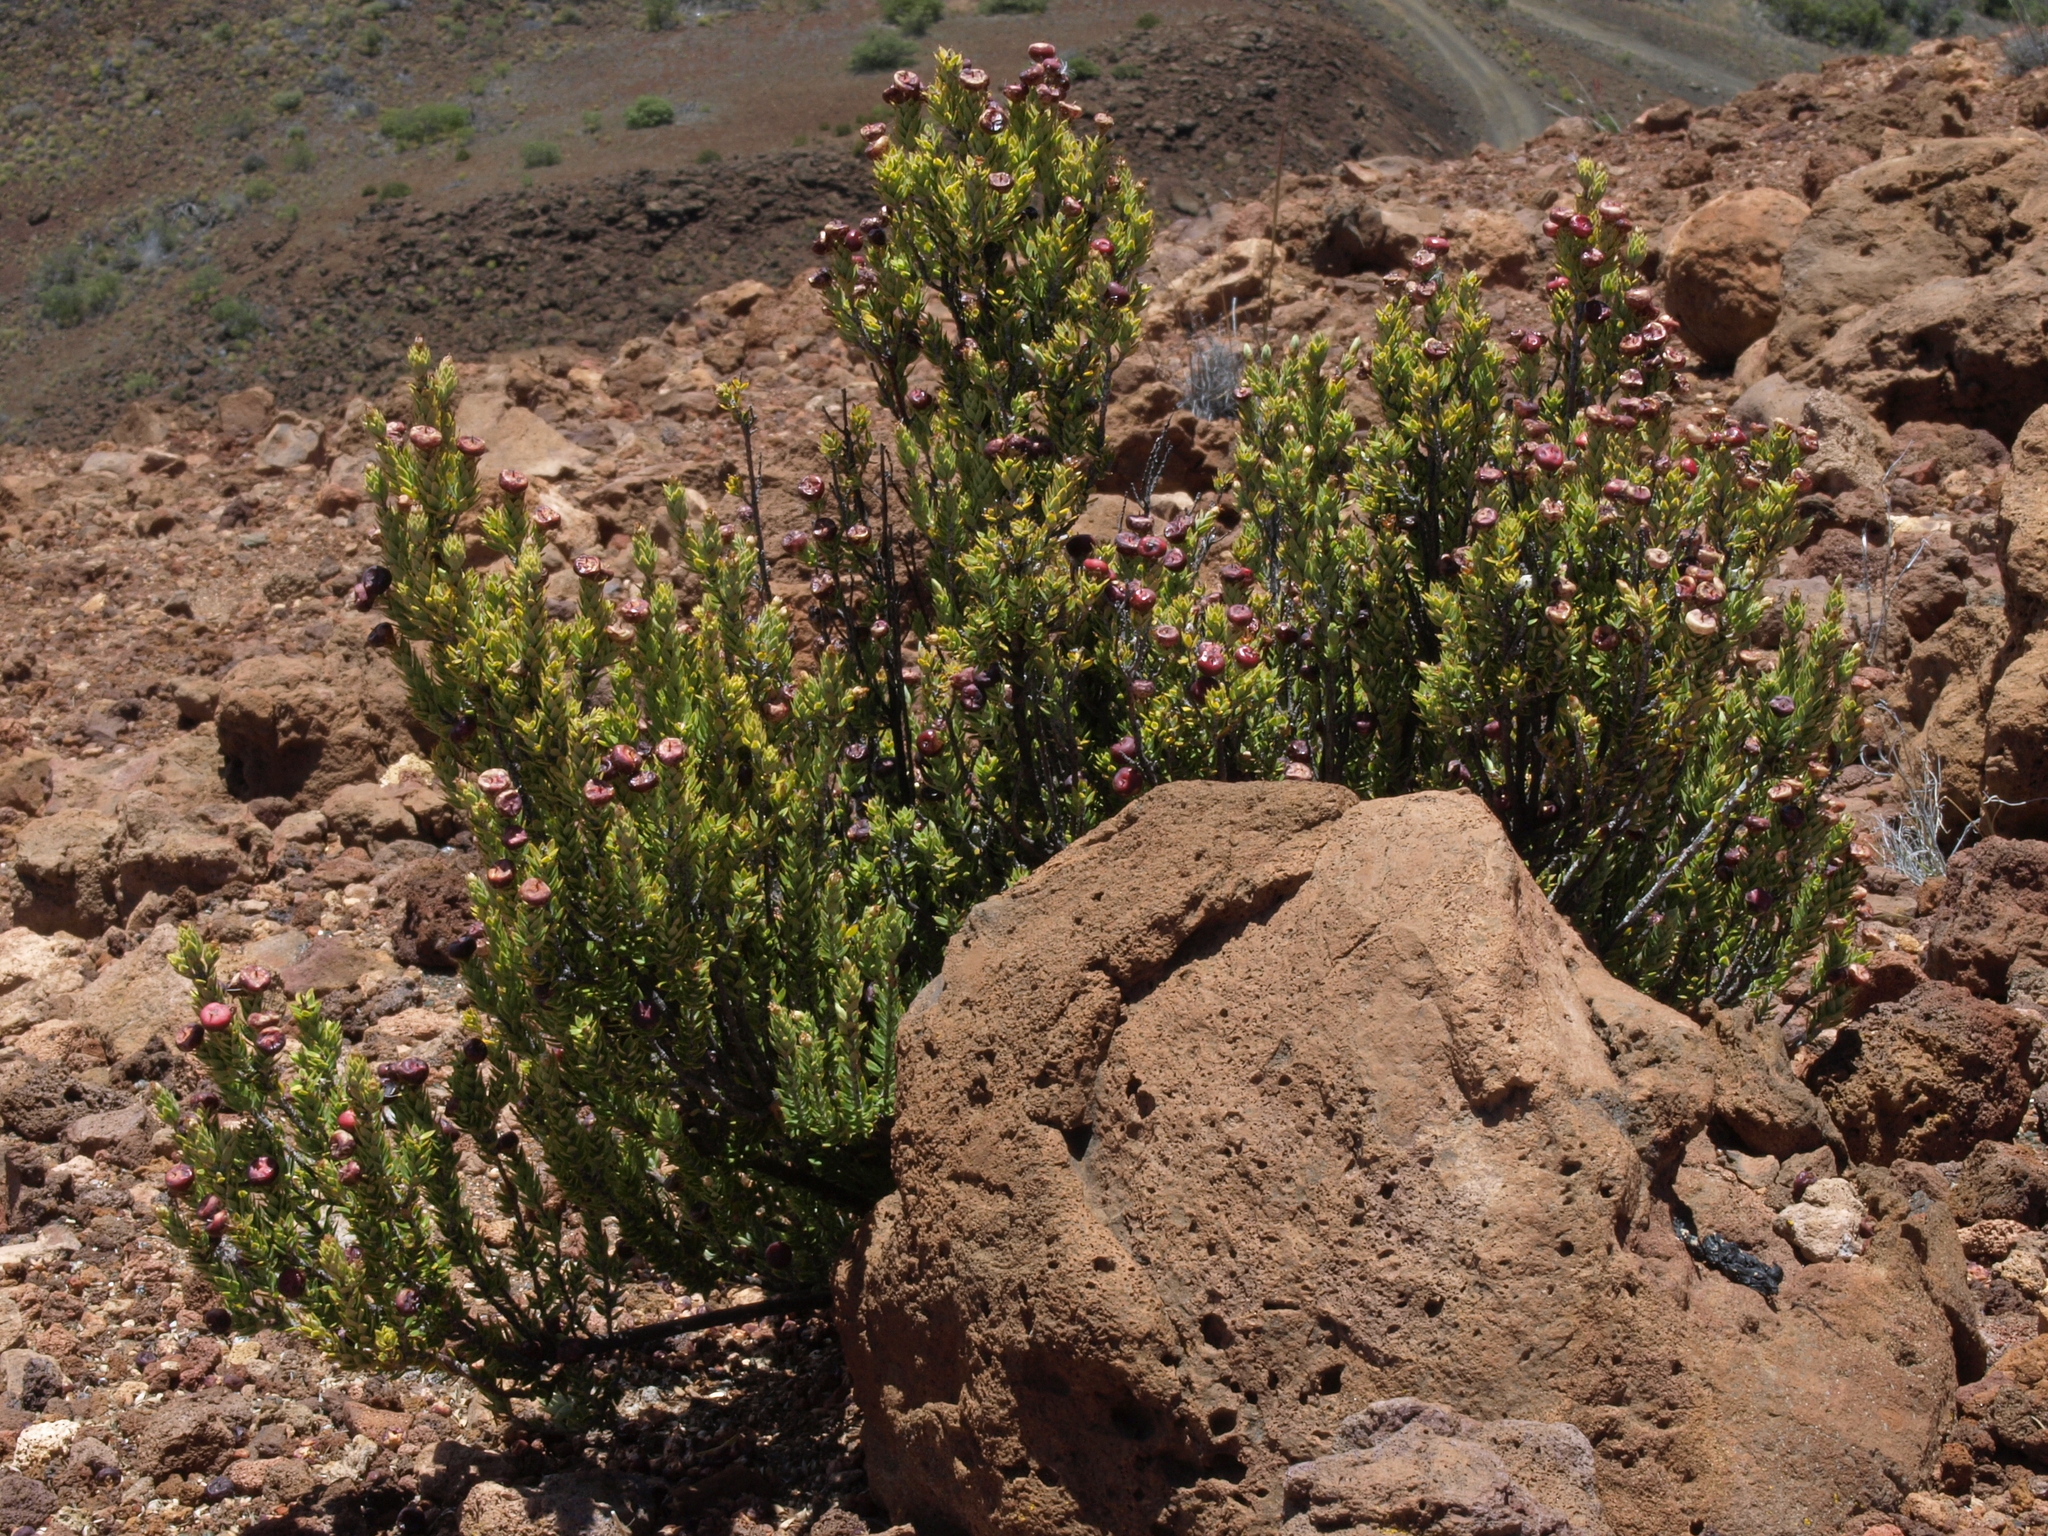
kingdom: Plantae
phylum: Tracheophyta
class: Magnoliopsida
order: Ericales
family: Ericaceae
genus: Leptecophylla
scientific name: Leptecophylla tameiameiae
